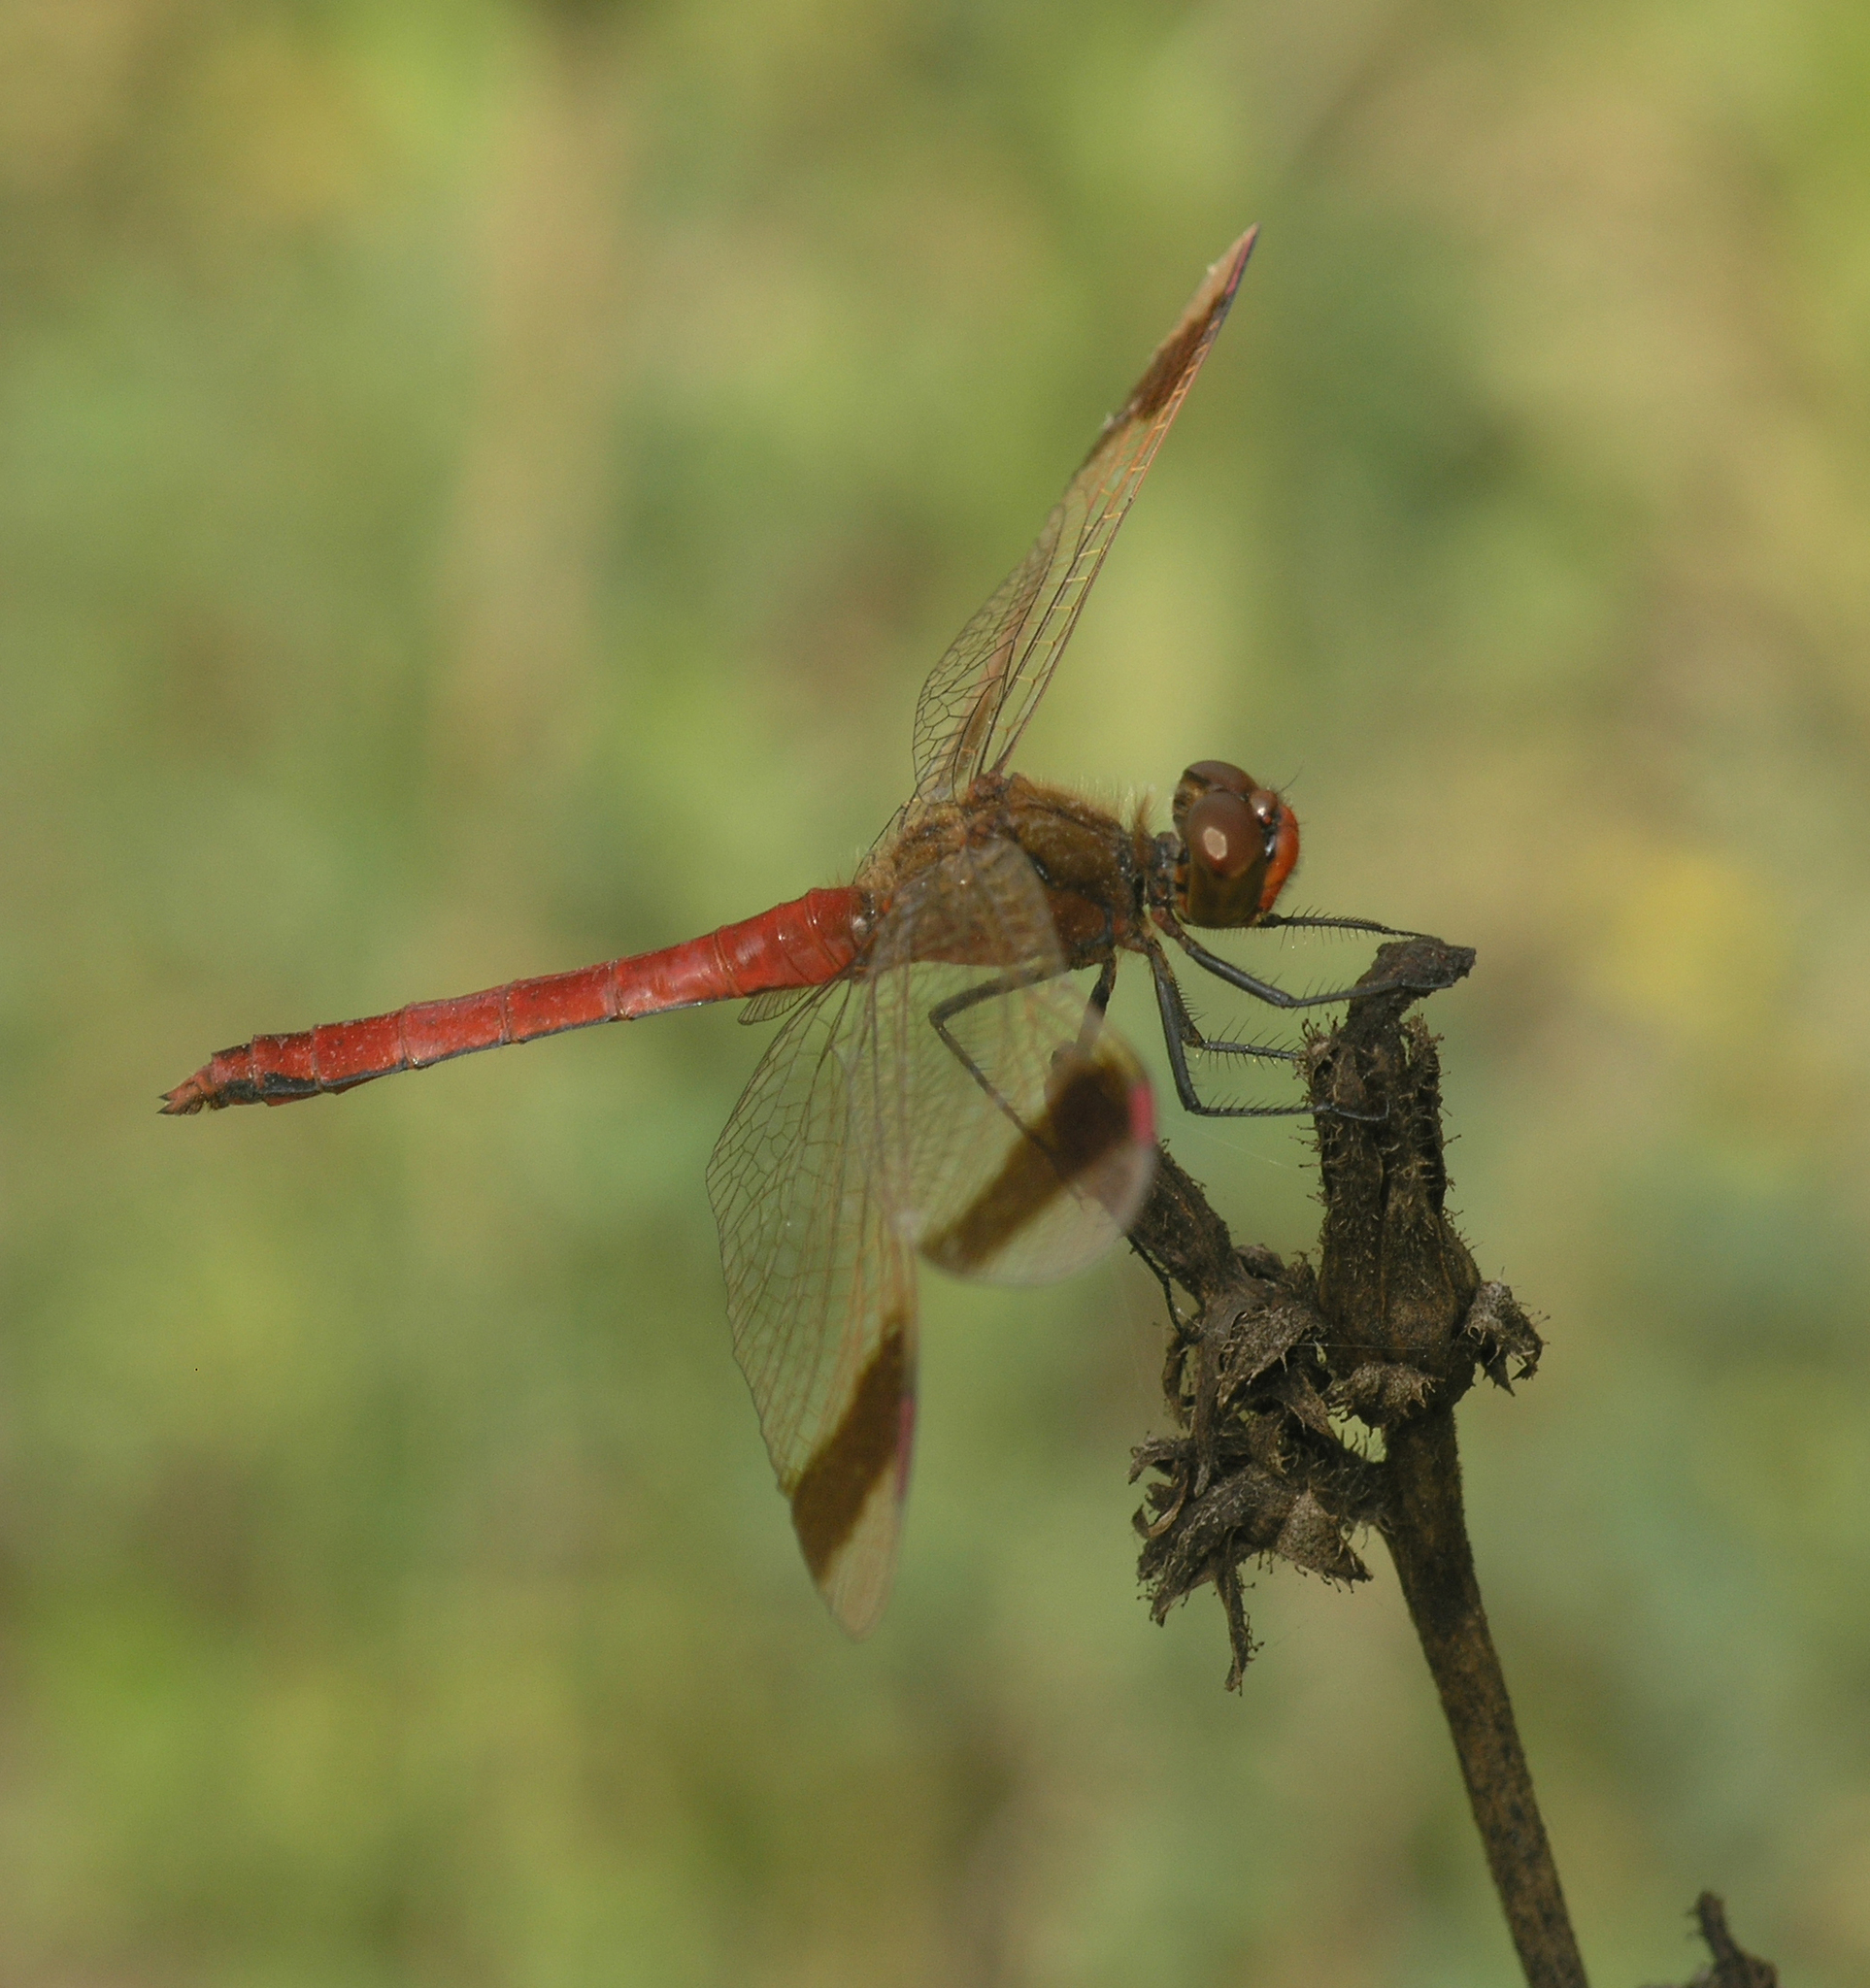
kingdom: Animalia
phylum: Arthropoda
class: Insecta
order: Odonata
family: Libellulidae
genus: Sympetrum
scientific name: Sympetrum pedemontanum
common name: Banded darter
